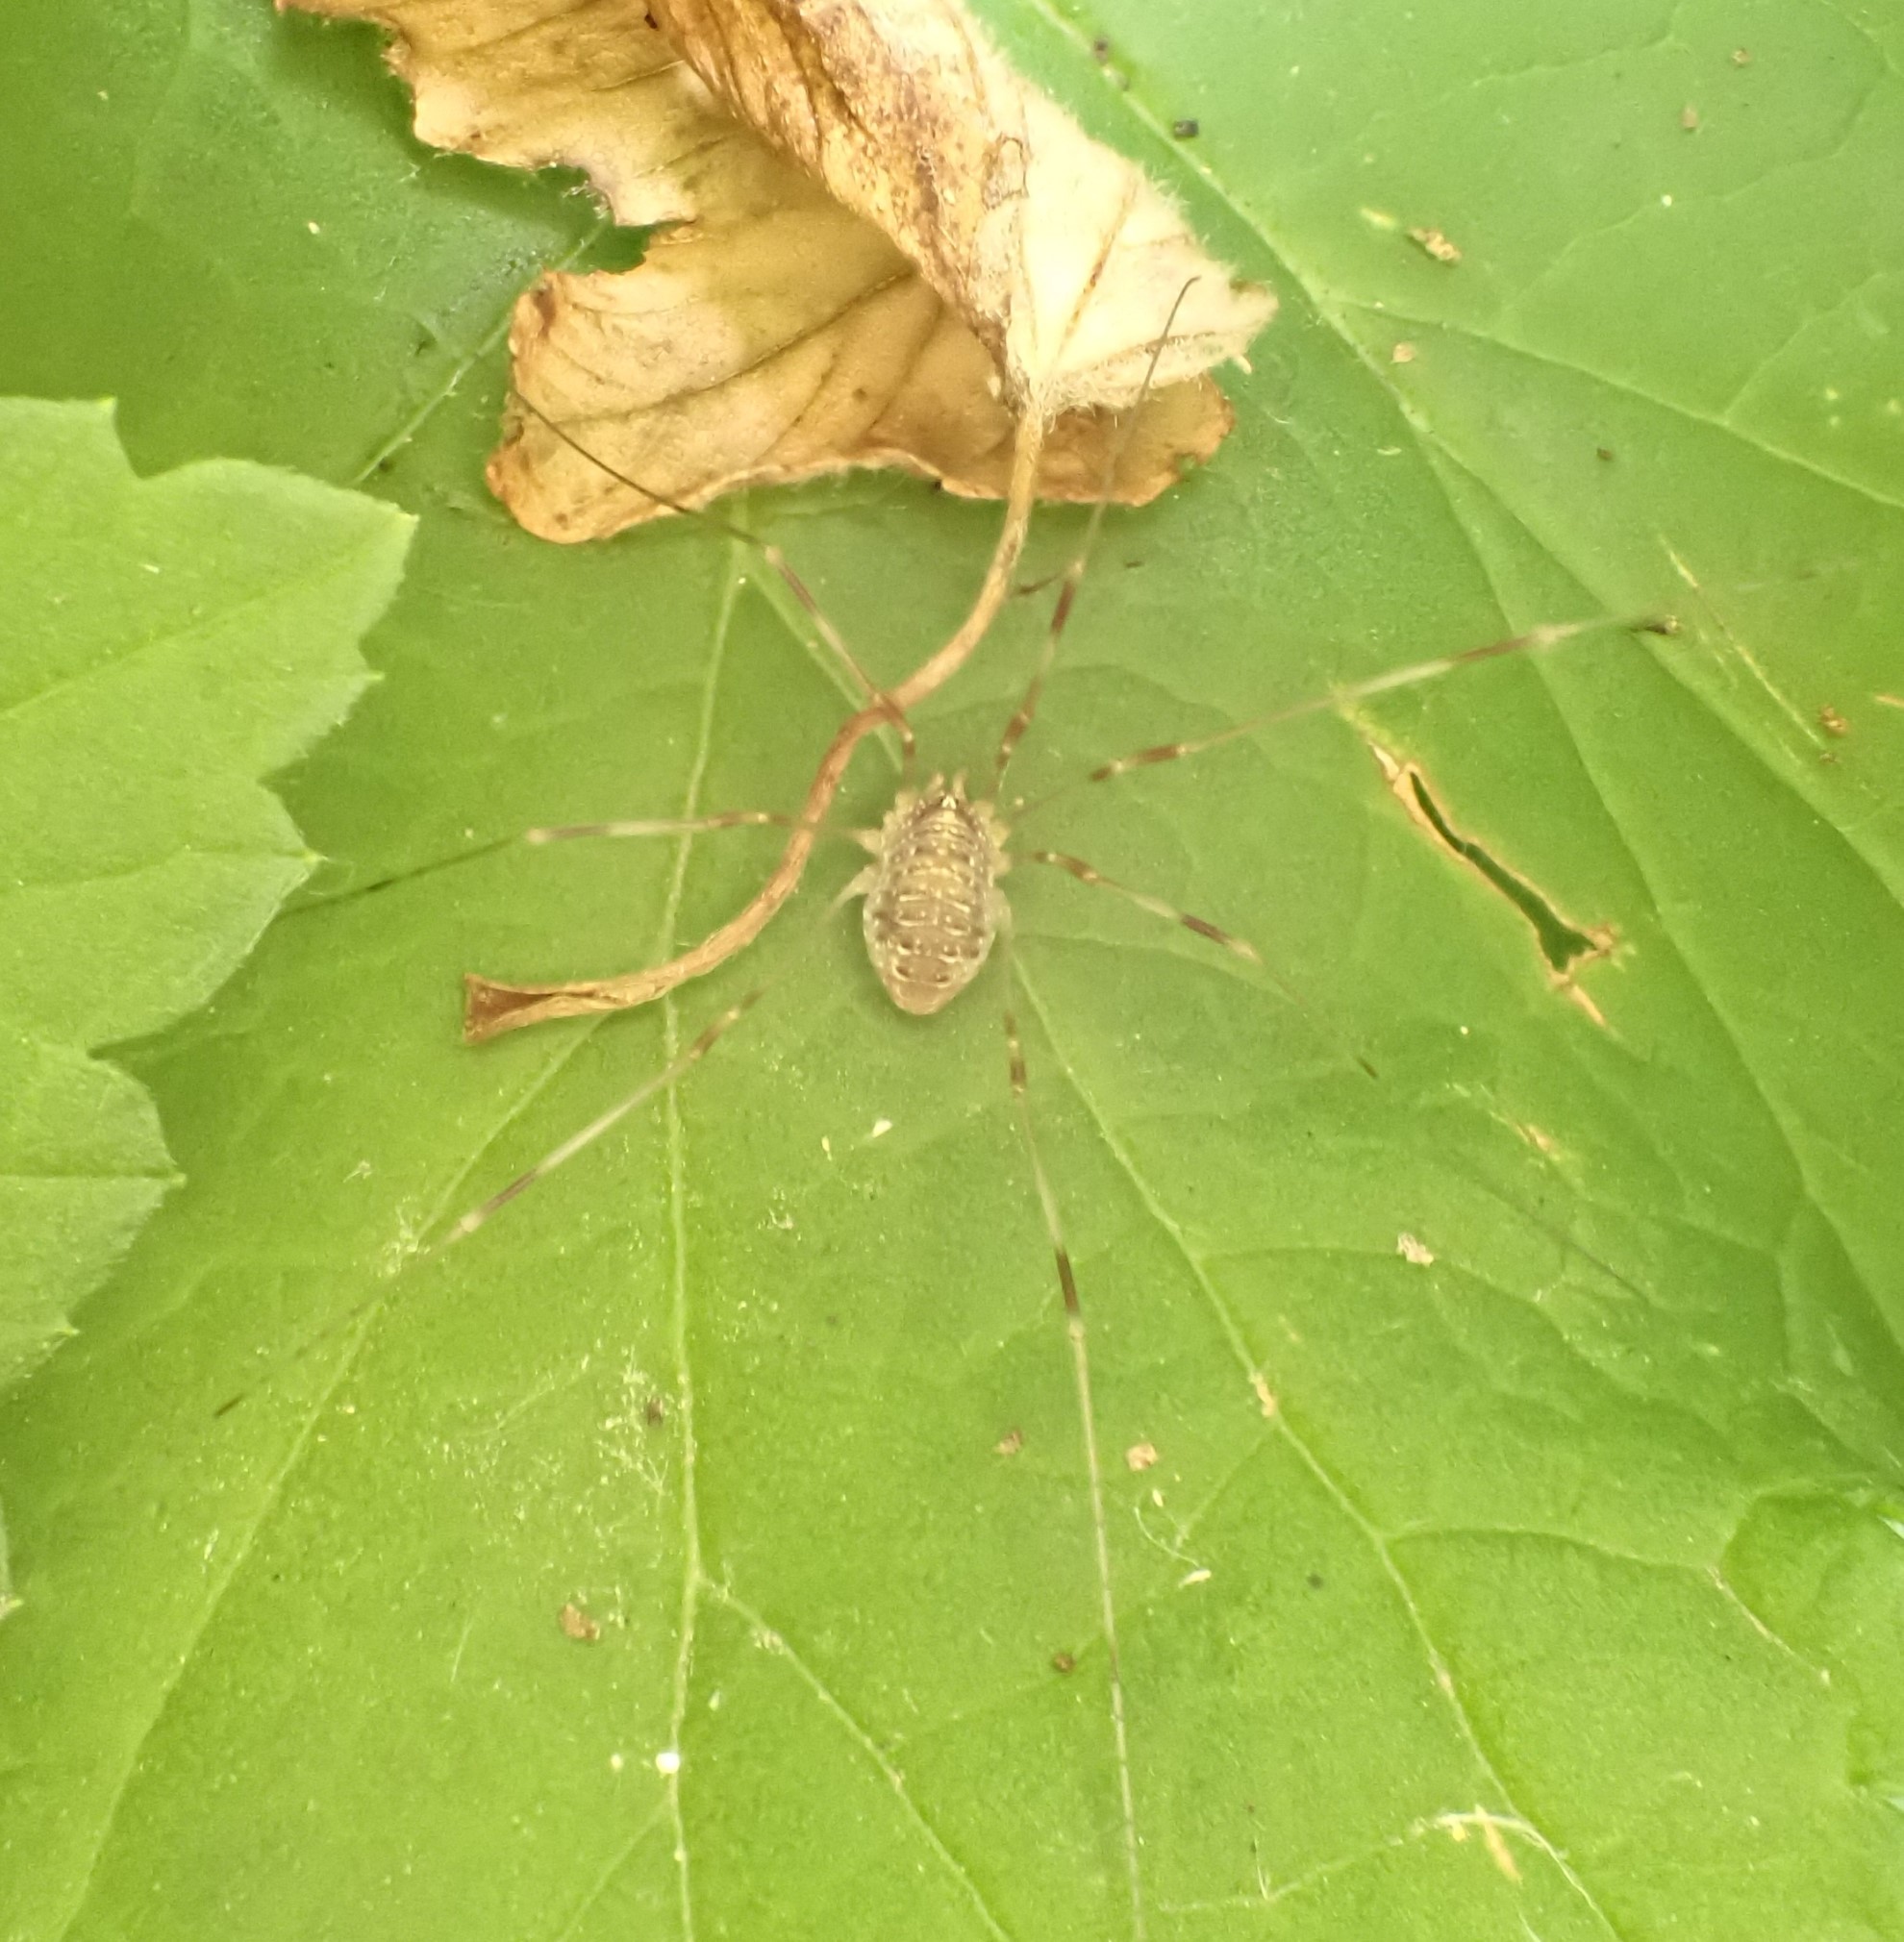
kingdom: Animalia
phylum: Arthropoda
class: Arachnida
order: Opiliones
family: Phalangiidae
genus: Opilio
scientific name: Opilio canestrinii
